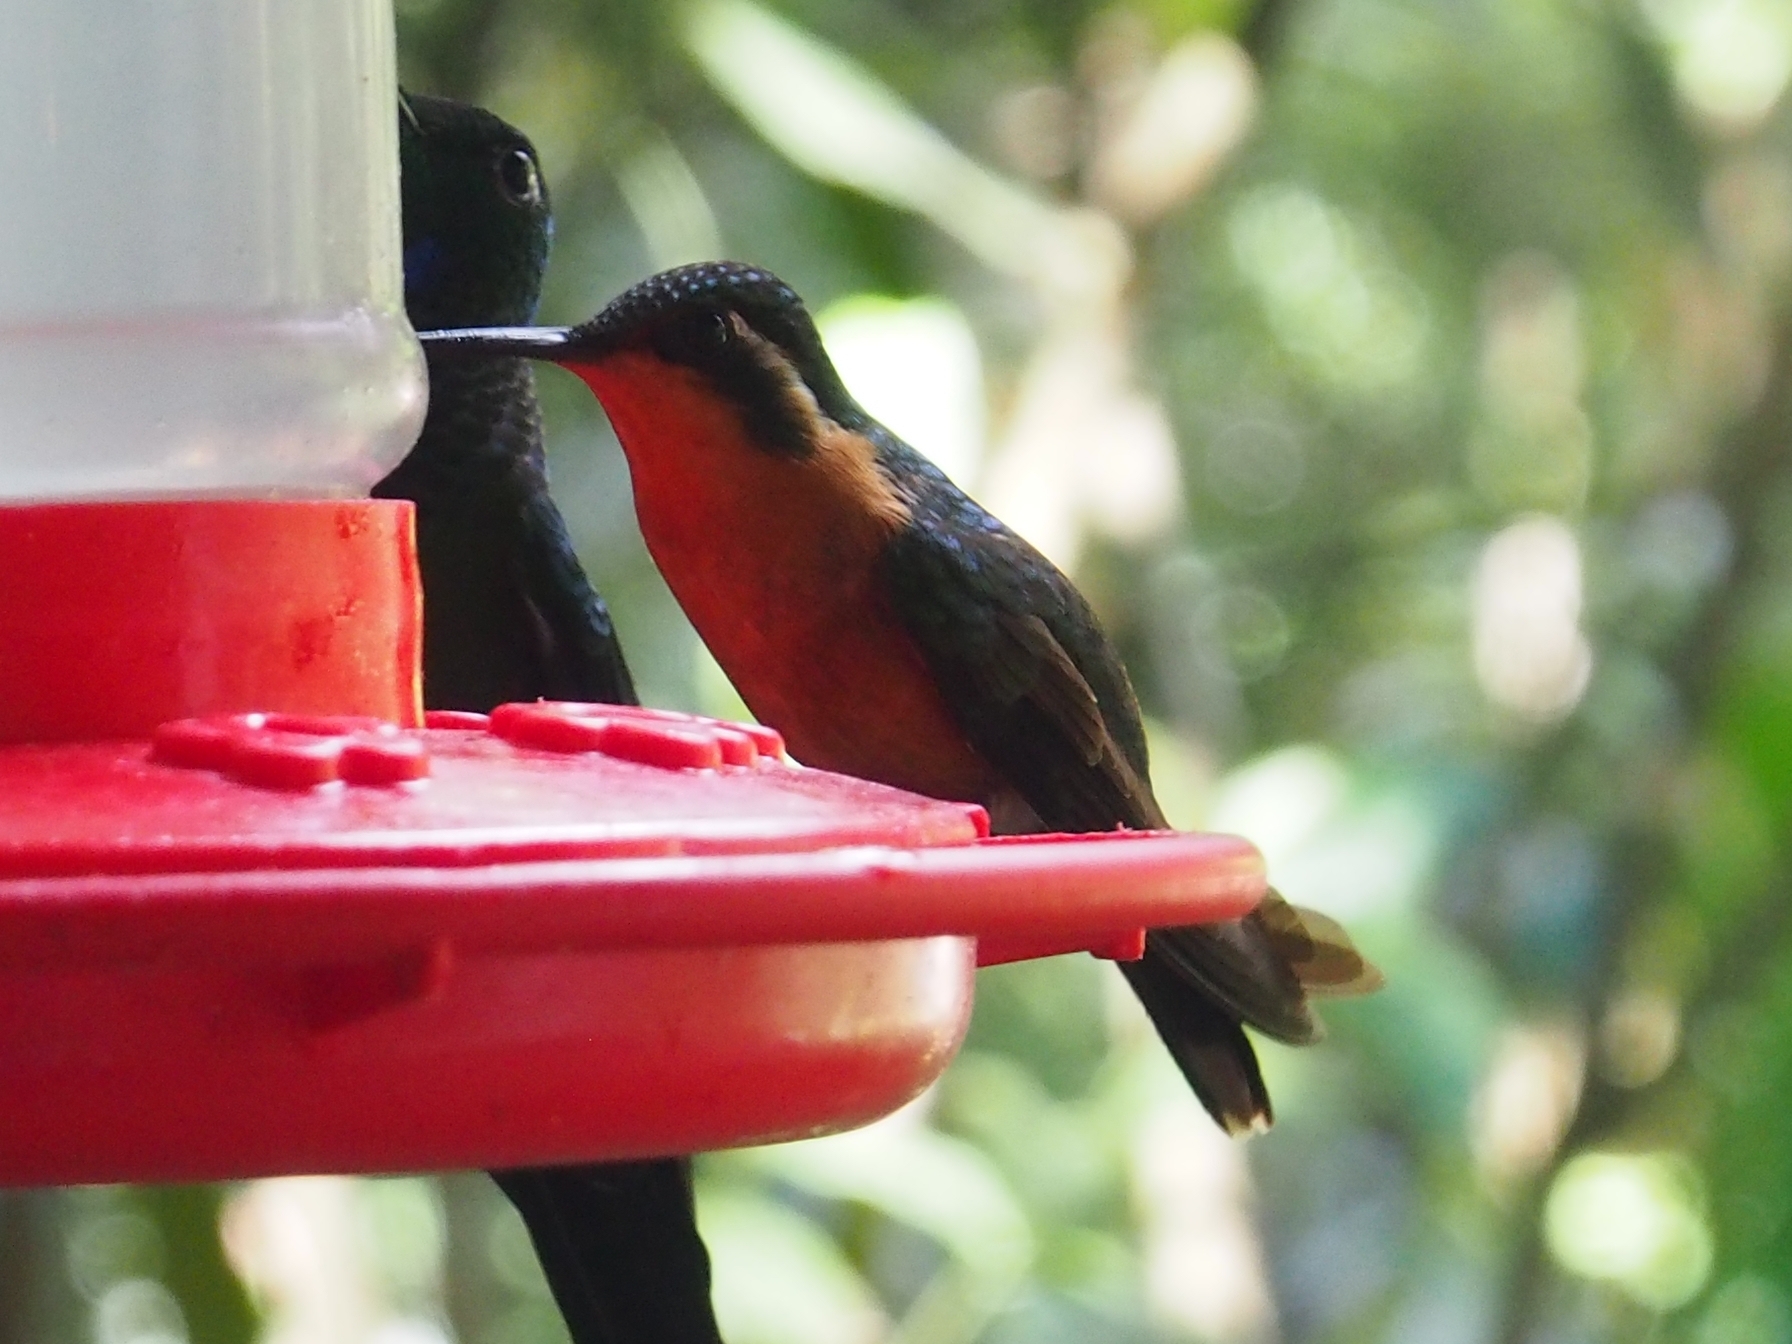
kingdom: Animalia
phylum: Chordata
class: Aves
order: Apodiformes
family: Trochilidae
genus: Lampornis
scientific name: Lampornis calolaemus
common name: Purple-throated mountain-gem
